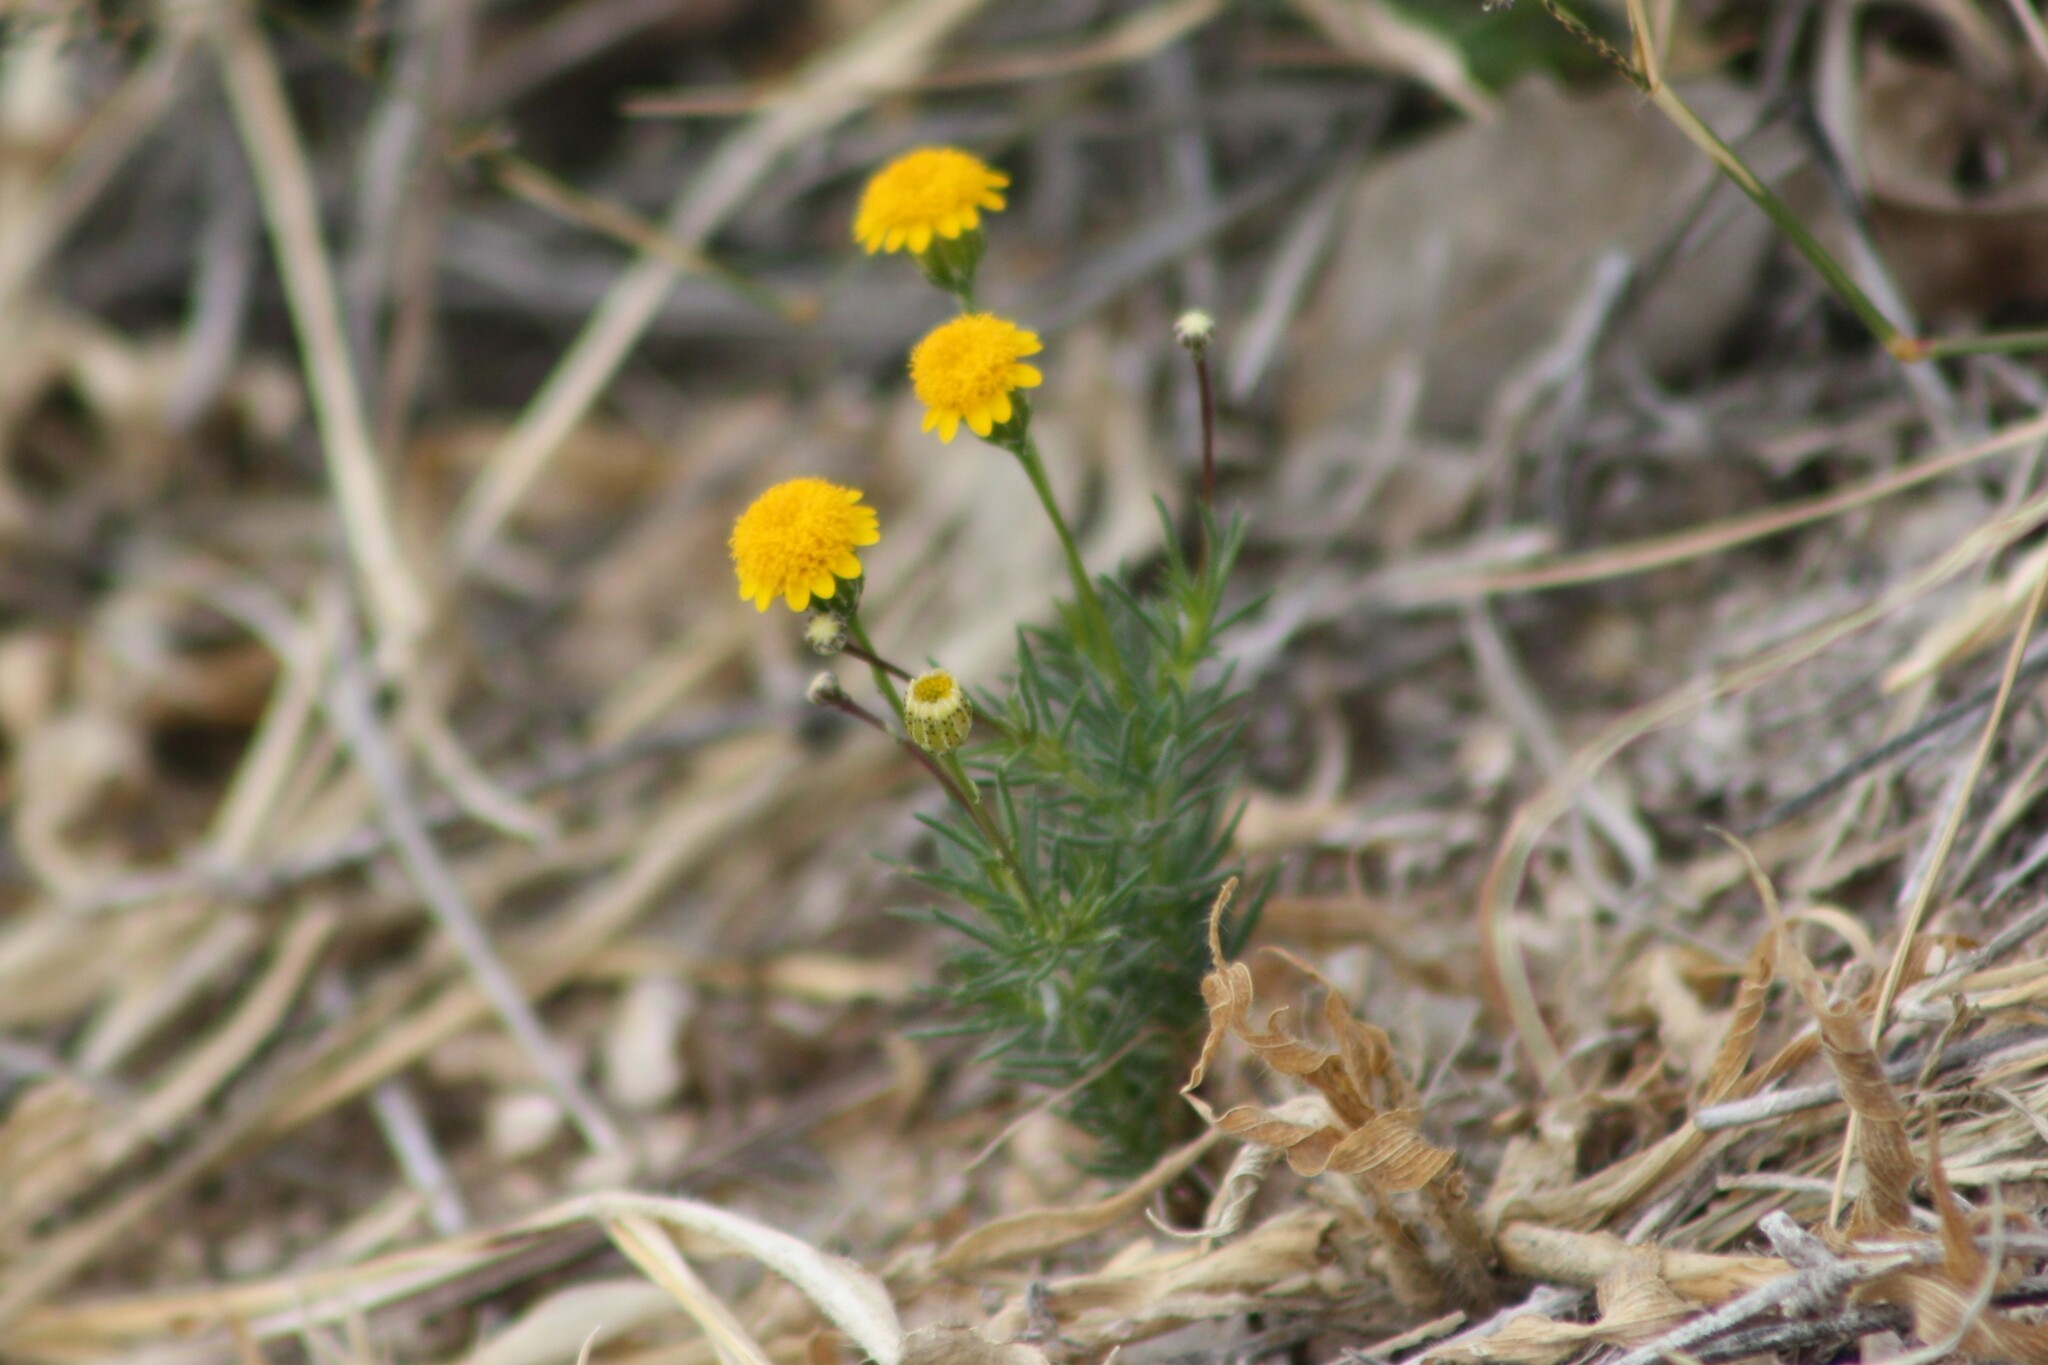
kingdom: Plantae
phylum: Tracheophyta
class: Magnoliopsida
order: Asterales
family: Asteraceae
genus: Thymophylla
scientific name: Thymophylla pentachaeta
